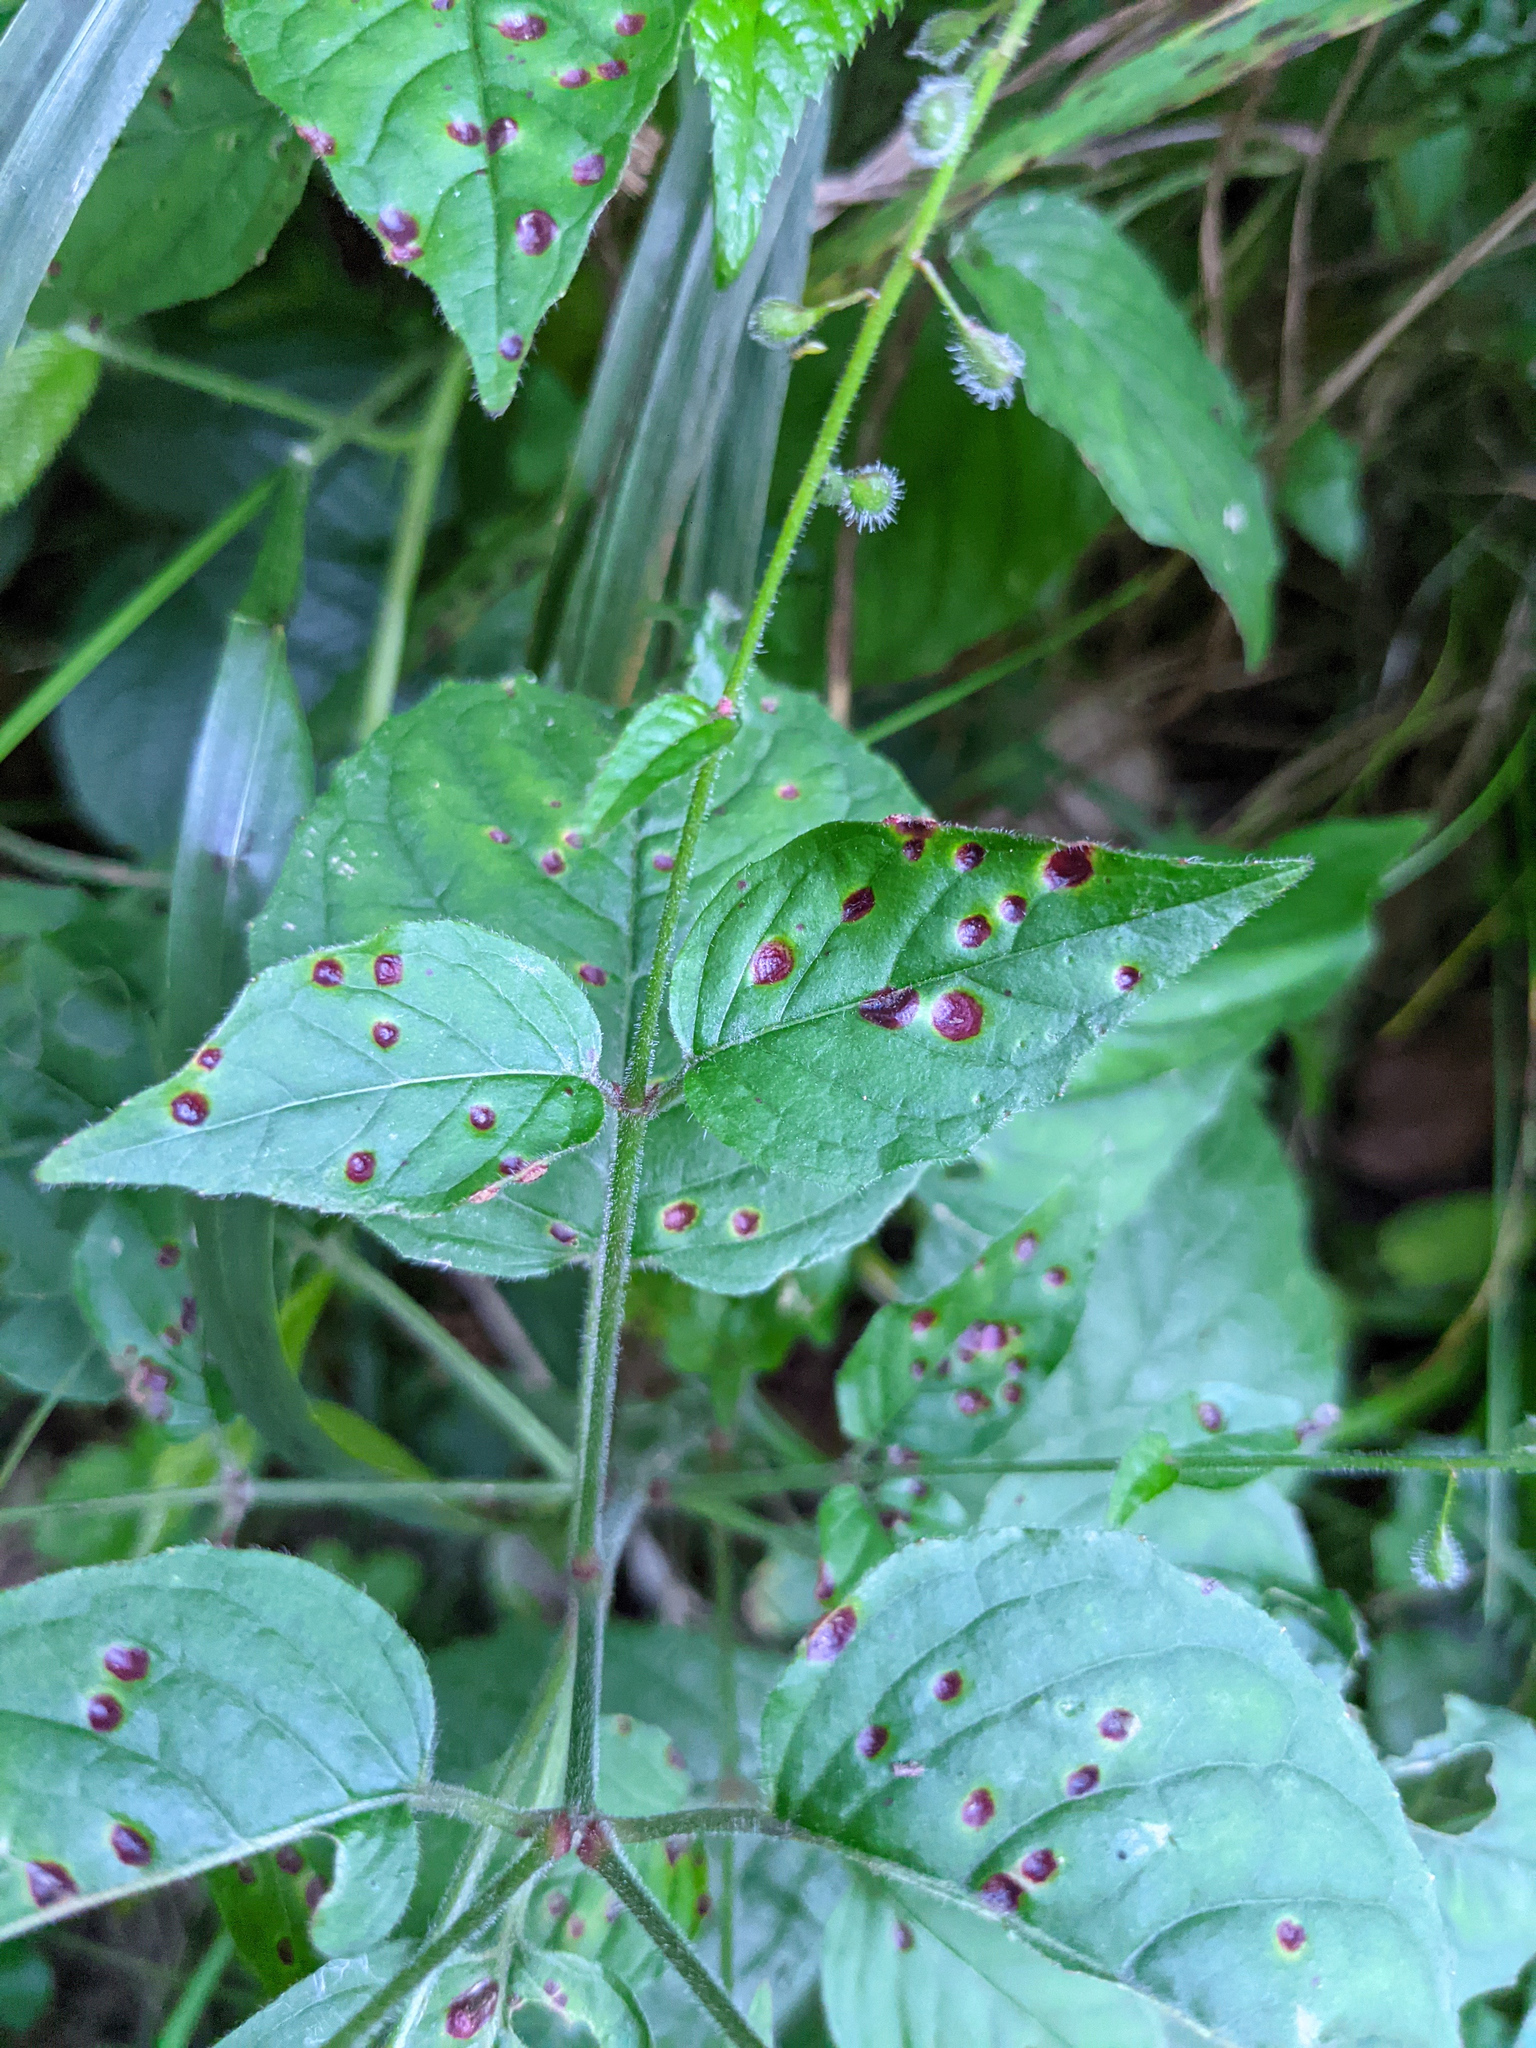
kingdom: Fungi
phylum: Basidiomycota
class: Pucciniomycetes
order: Pucciniales
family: Pucciniaceae
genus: Puccinia
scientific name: Puccinia circaeae
